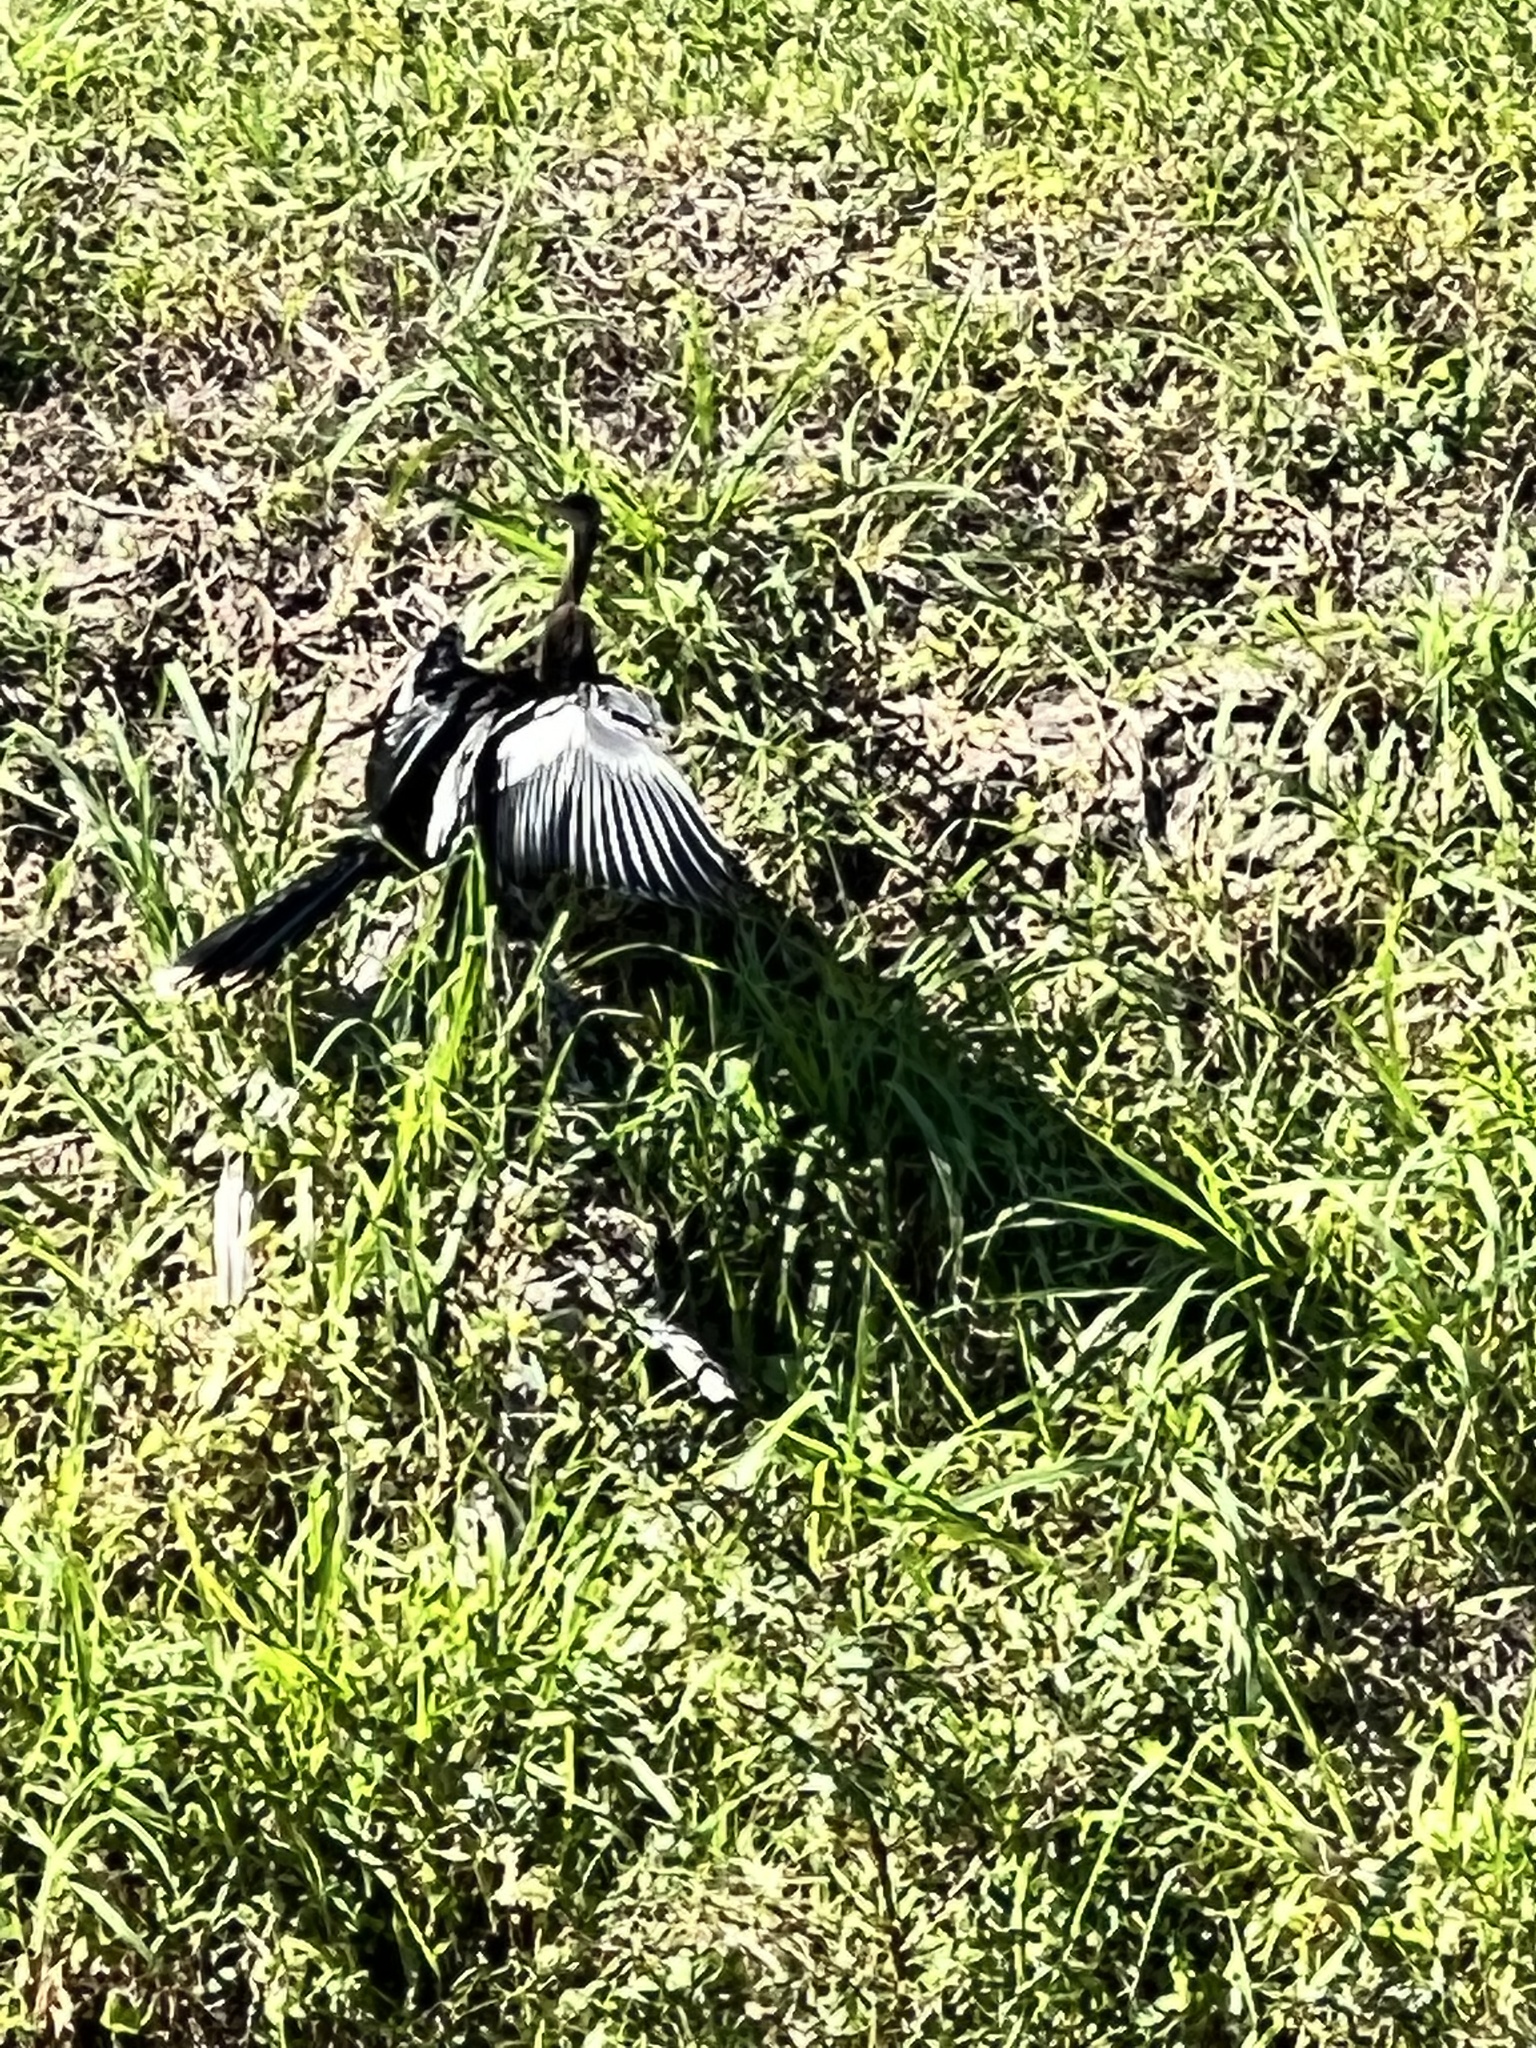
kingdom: Animalia
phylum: Chordata
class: Aves
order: Suliformes
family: Anhingidae
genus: Anhinga
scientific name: Anhinga anhinga
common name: Anhinga
